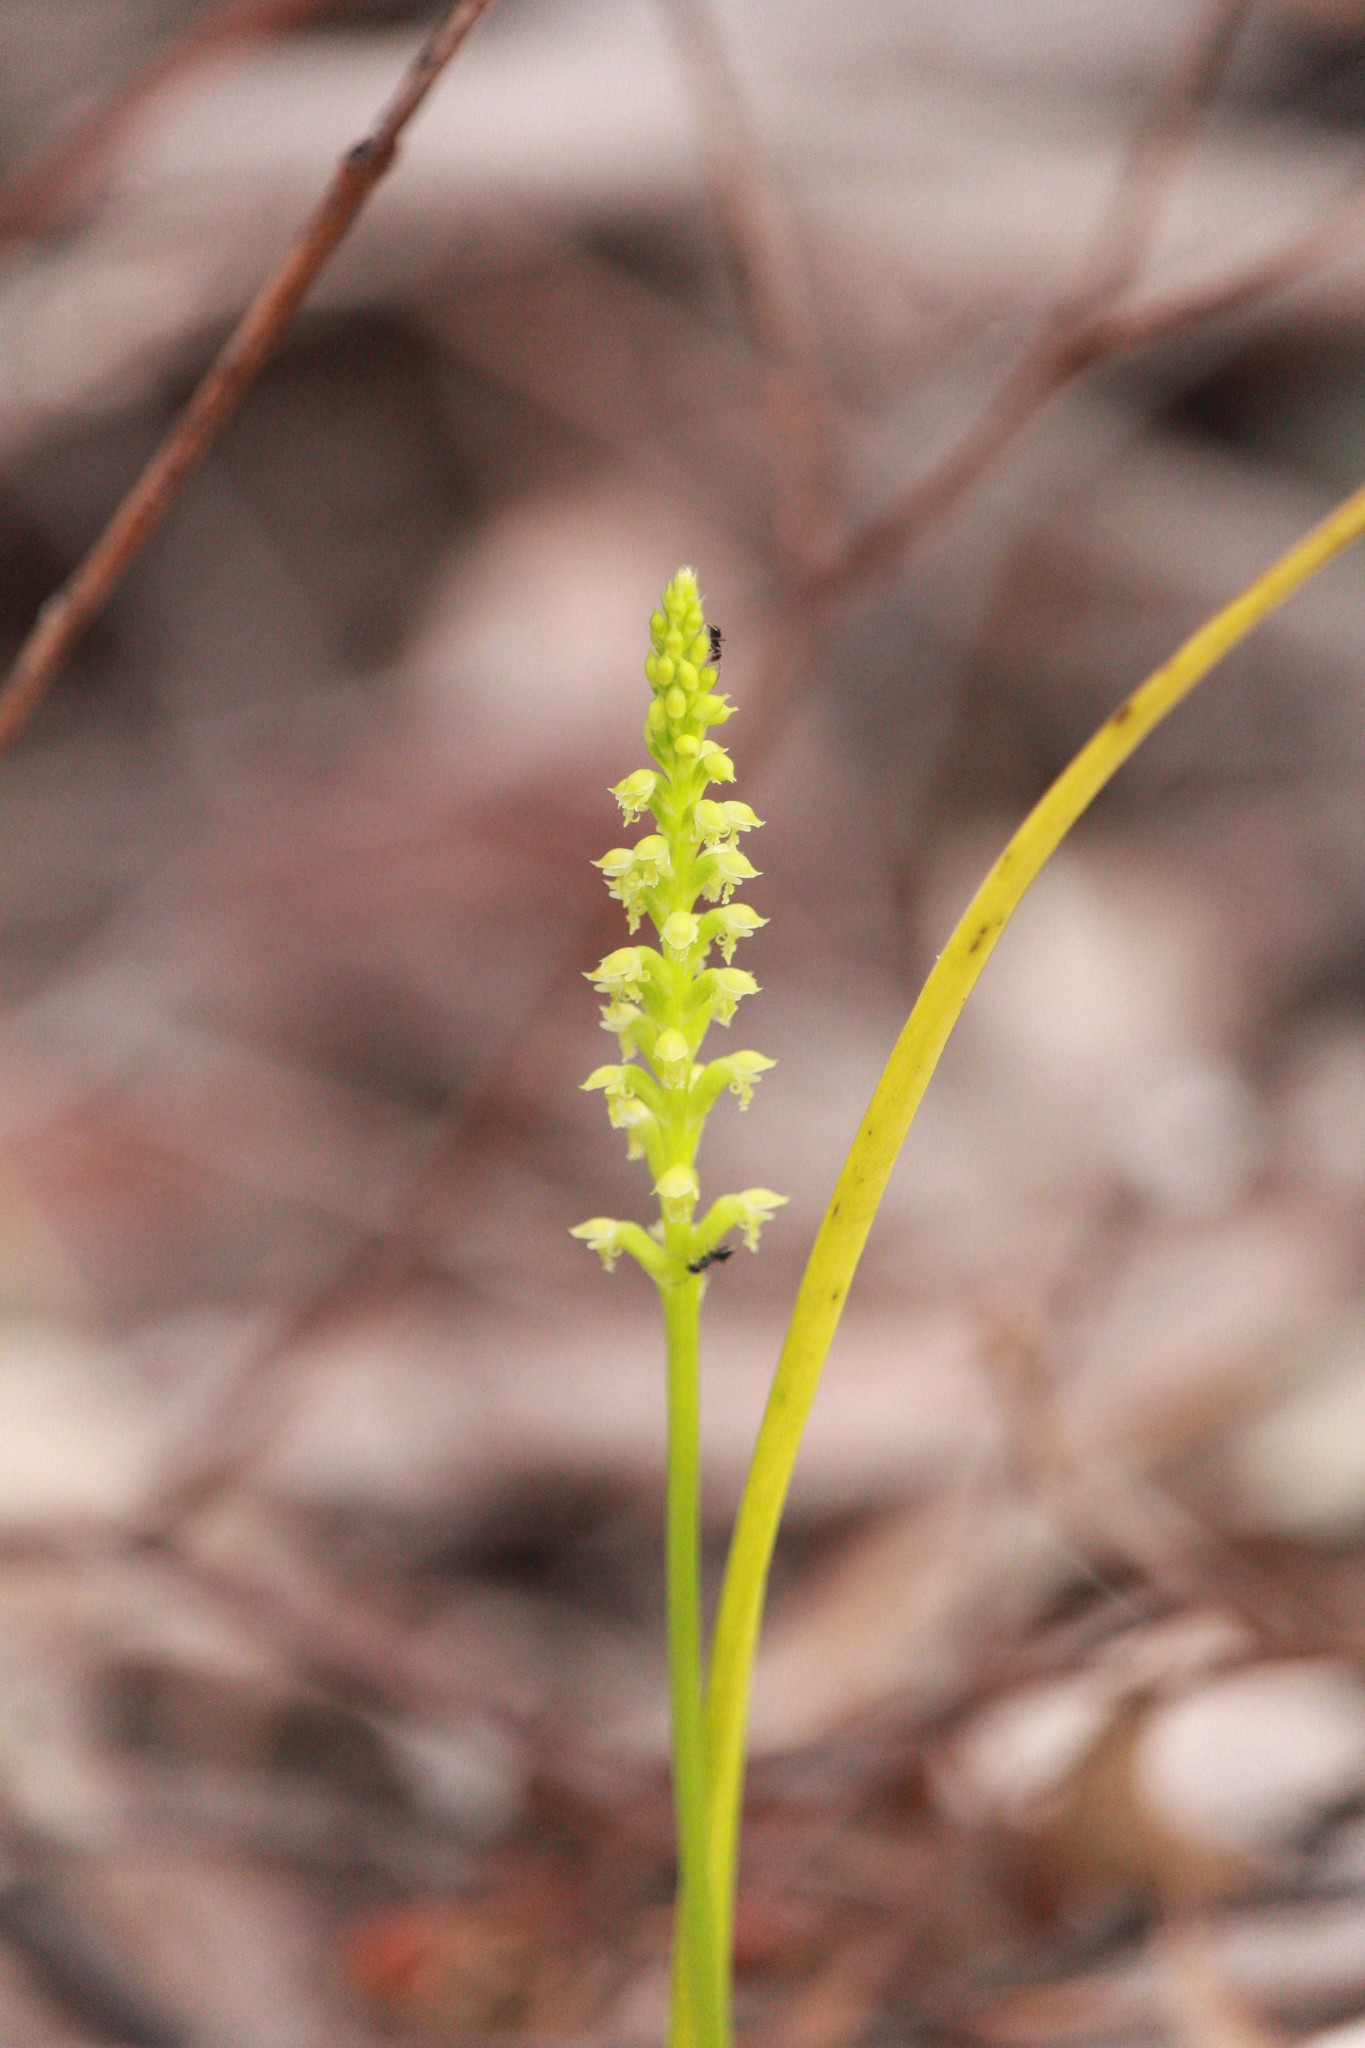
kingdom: Plantae
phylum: Tracheophyta
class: Liliopsida
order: Asparagales
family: Orchidaceae
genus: Microtis
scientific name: Microtis media
